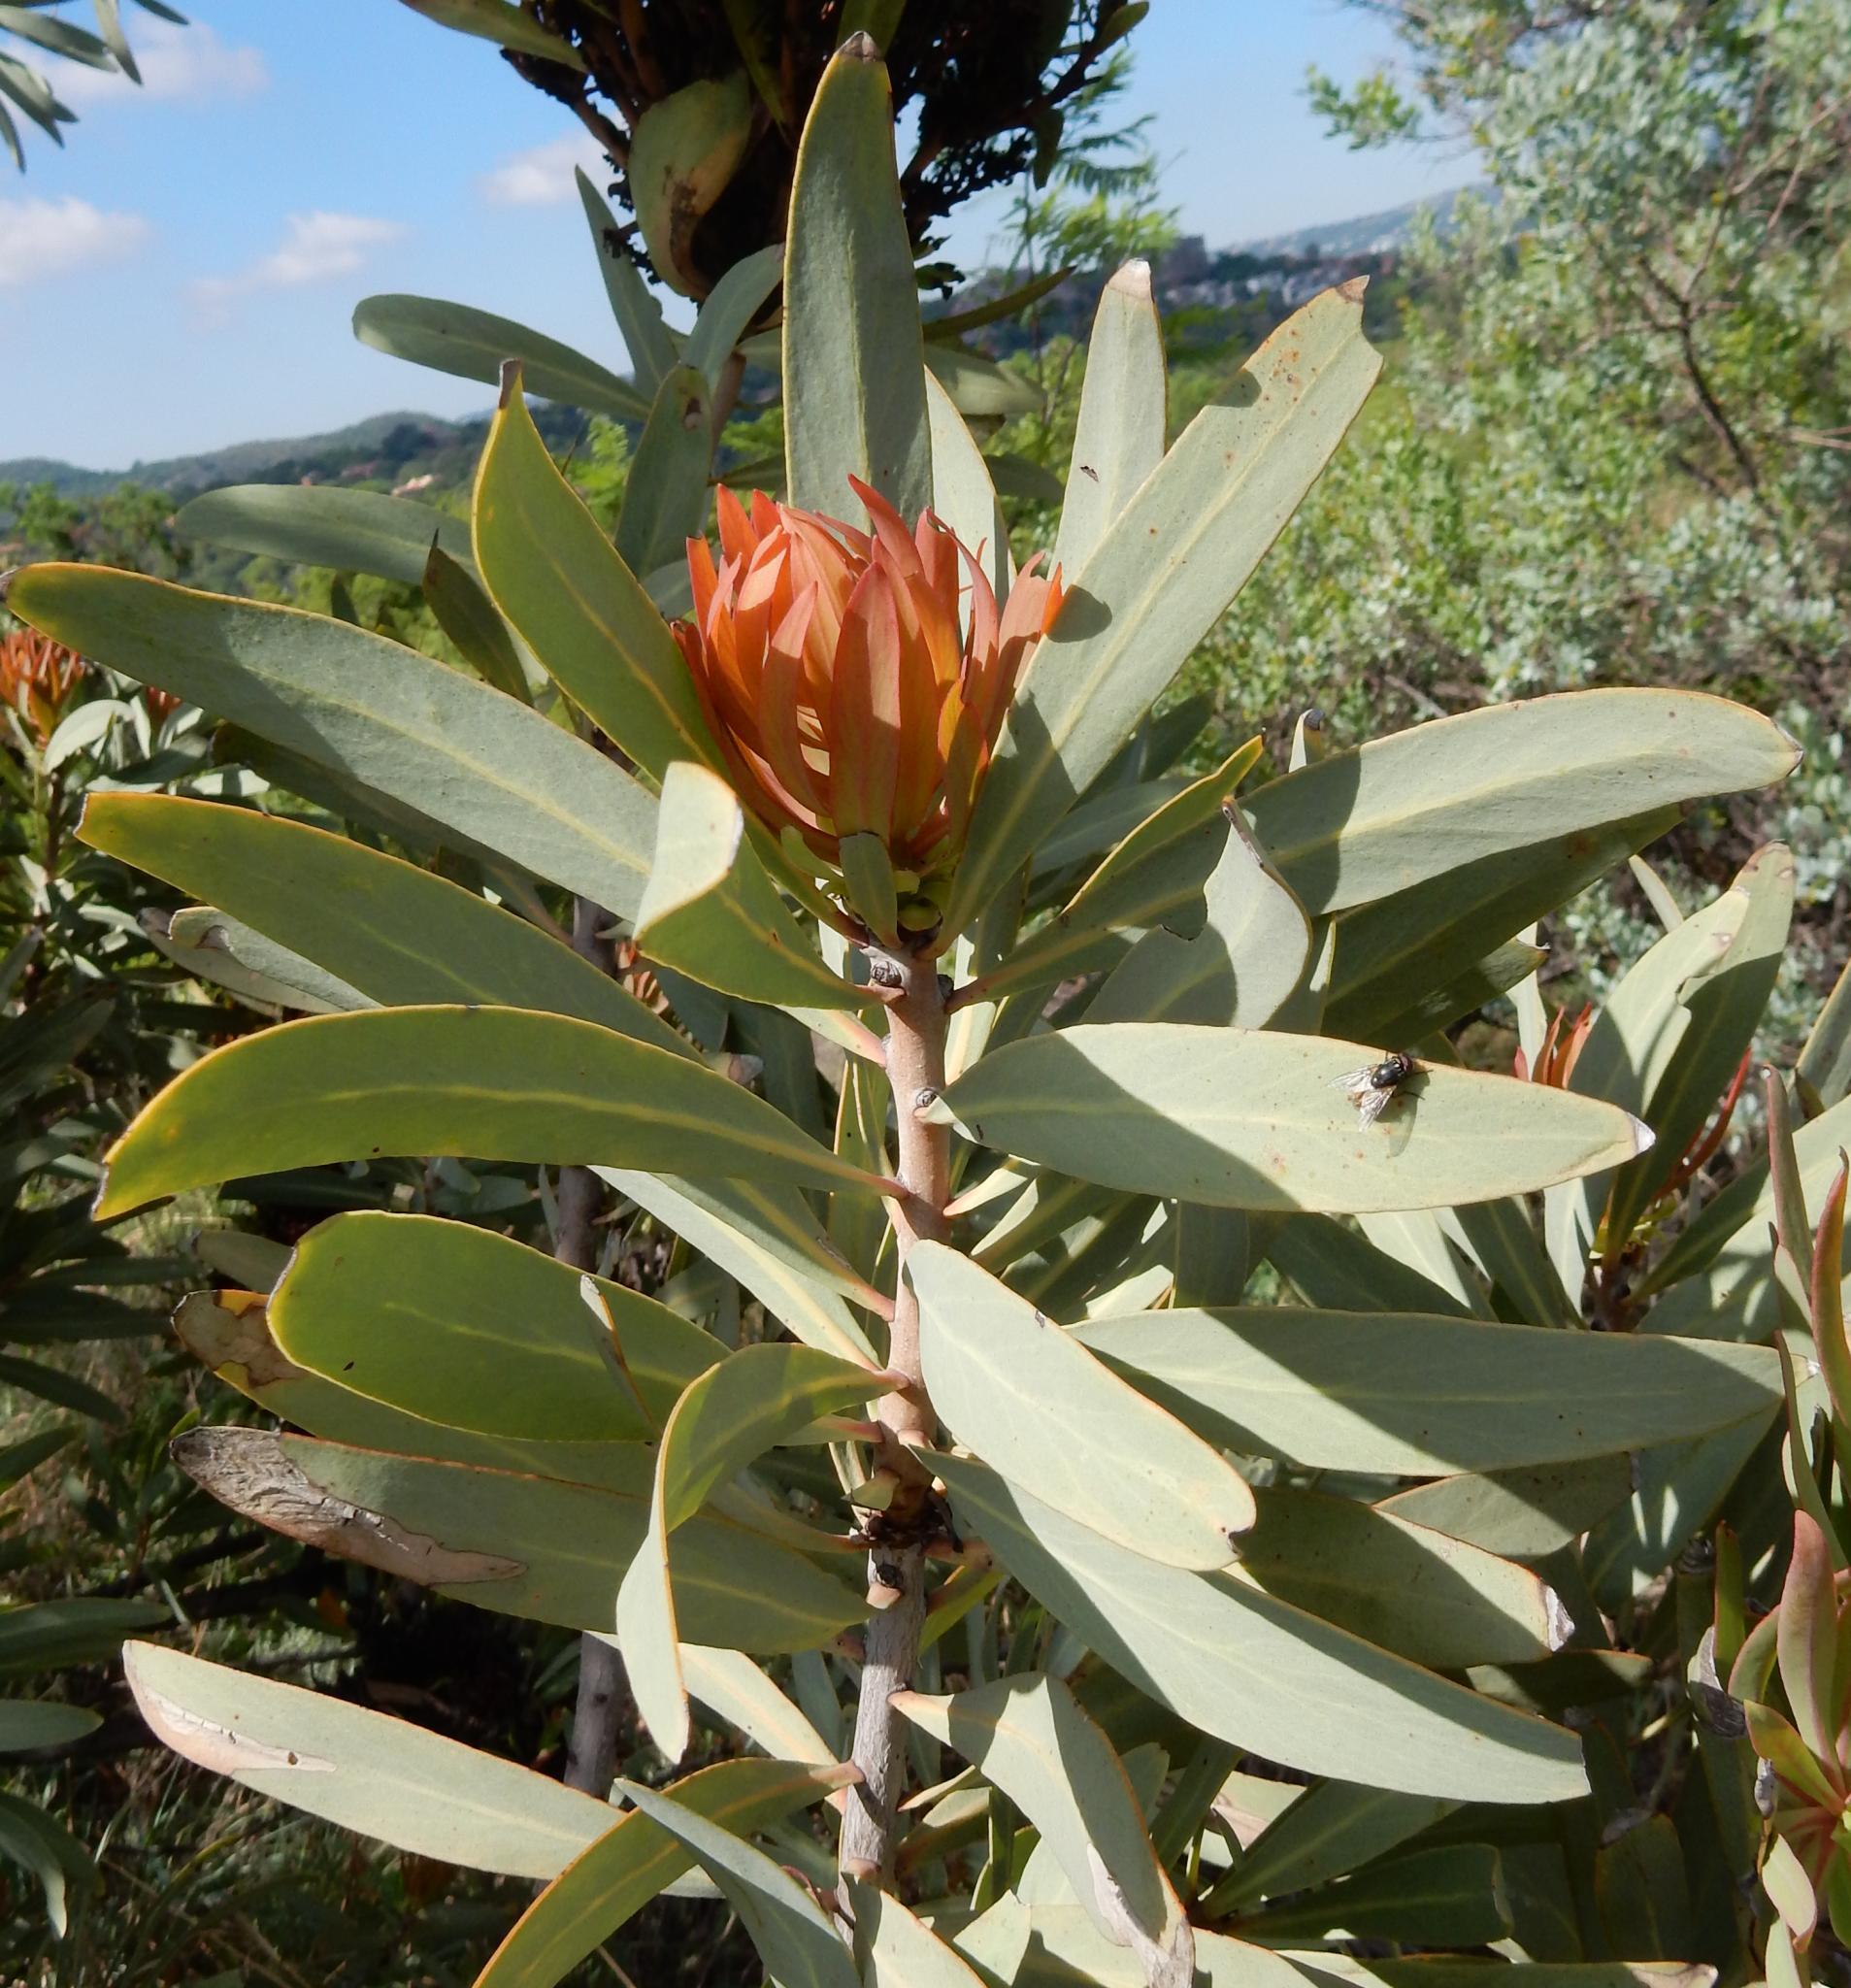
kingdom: Plantae
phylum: Tracheophyta
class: Magnoliopsida
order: Proteales
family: Proteaceae
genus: Protea
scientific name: Protea caffra
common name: Common sugarbush
